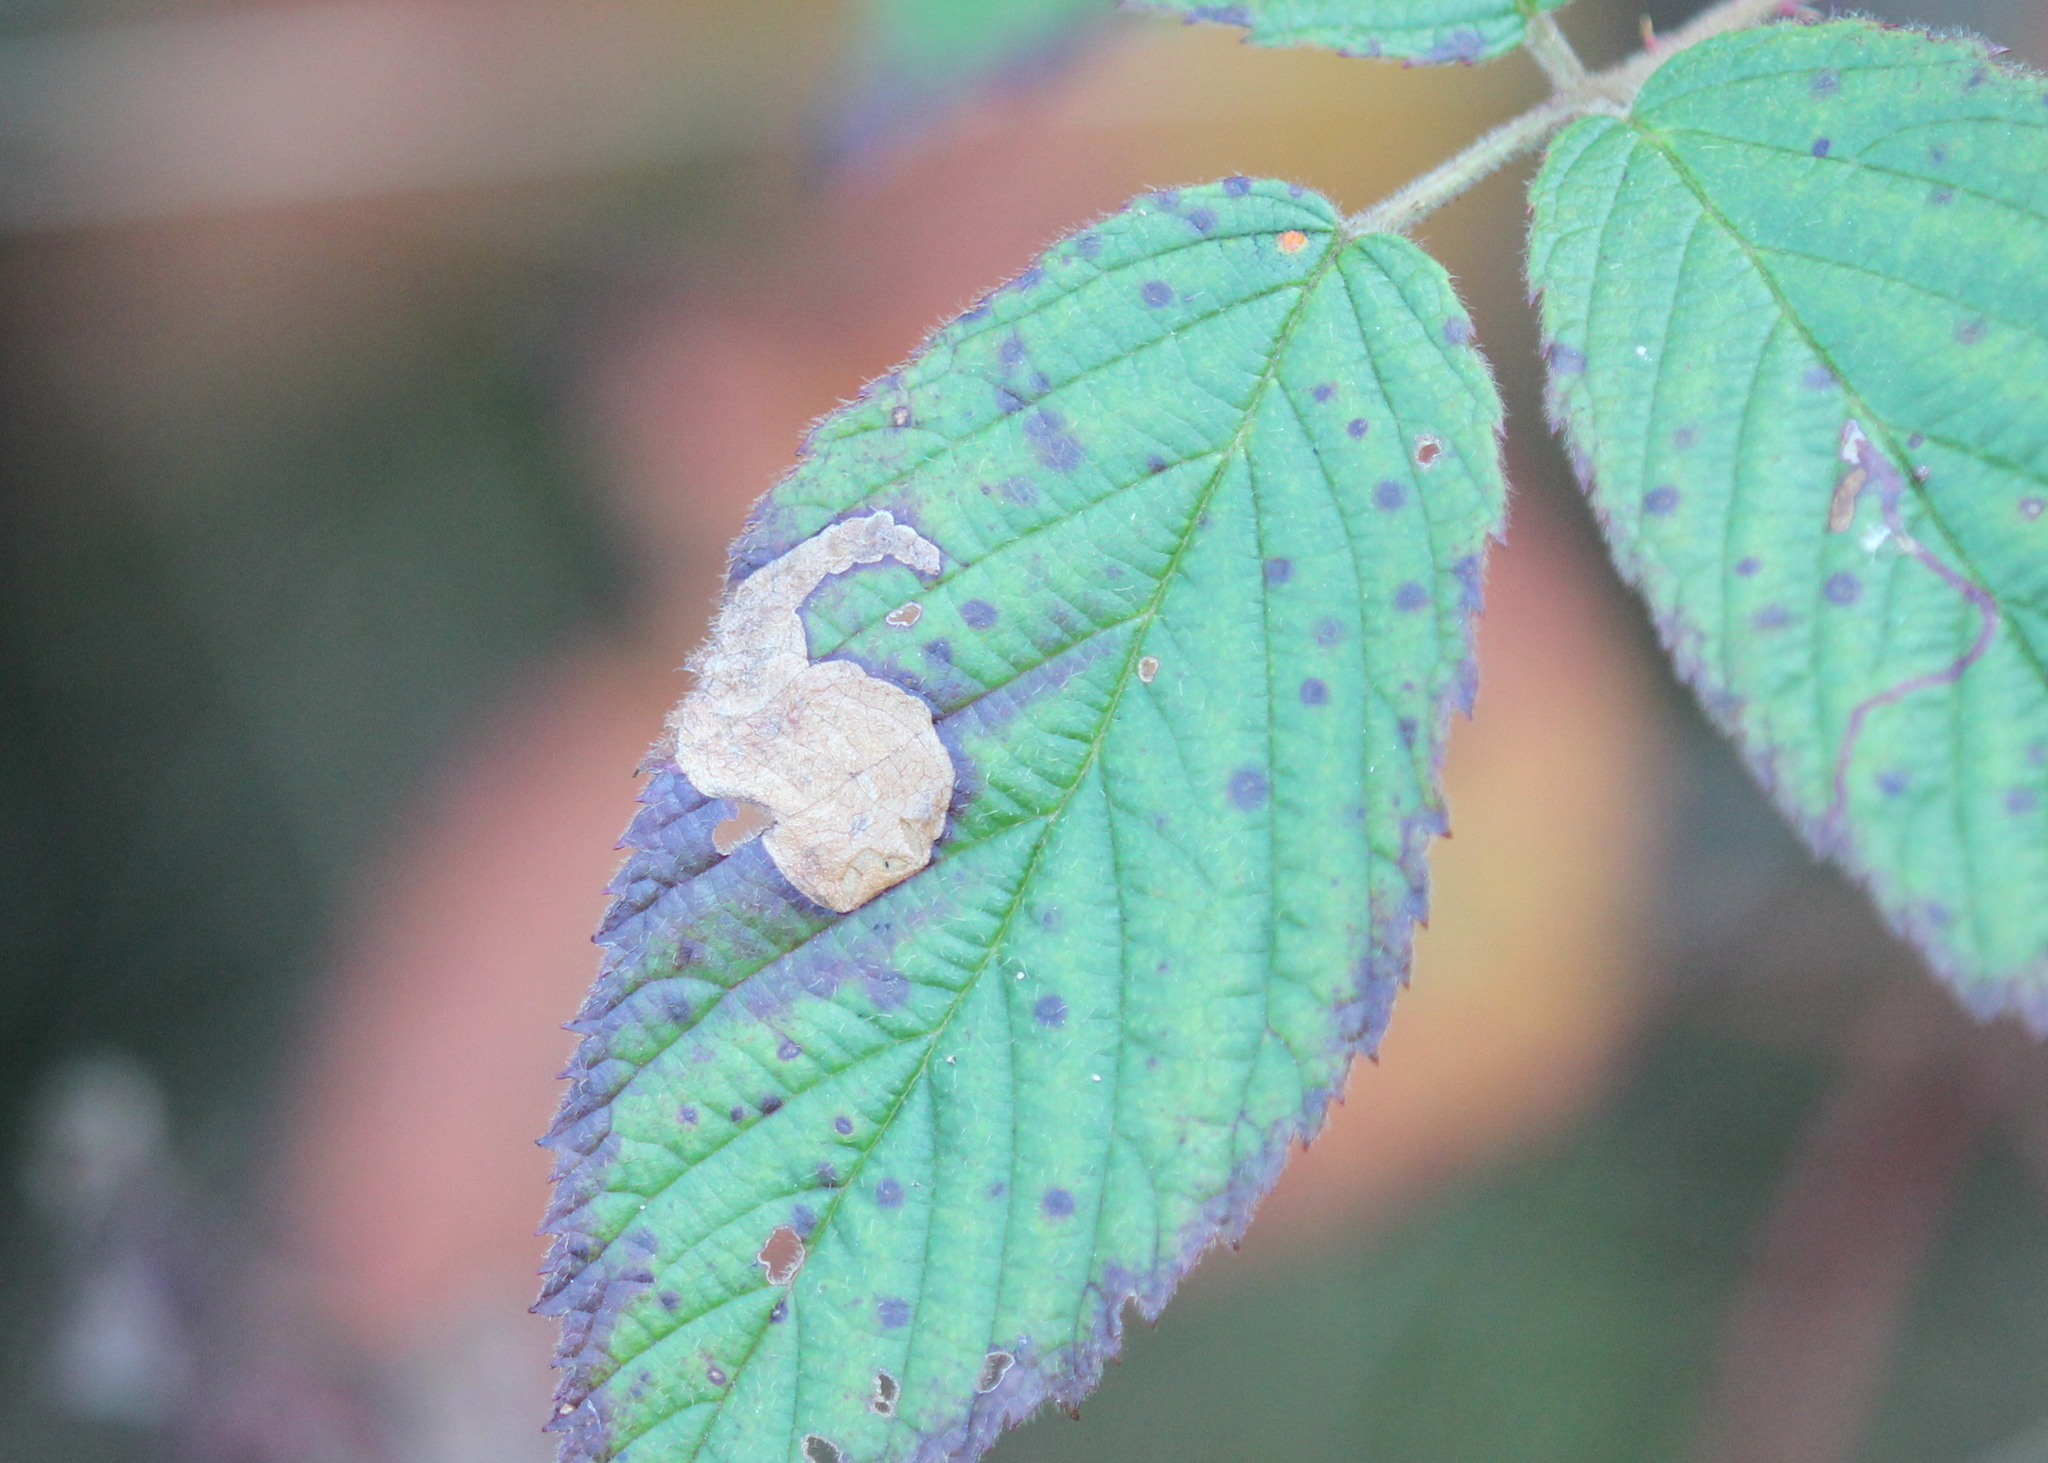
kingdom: Animalia
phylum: Arthropoda
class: Insecta
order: Hymenoptera
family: Tenthredinidae
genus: Metallus
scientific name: Metallus rohweri
